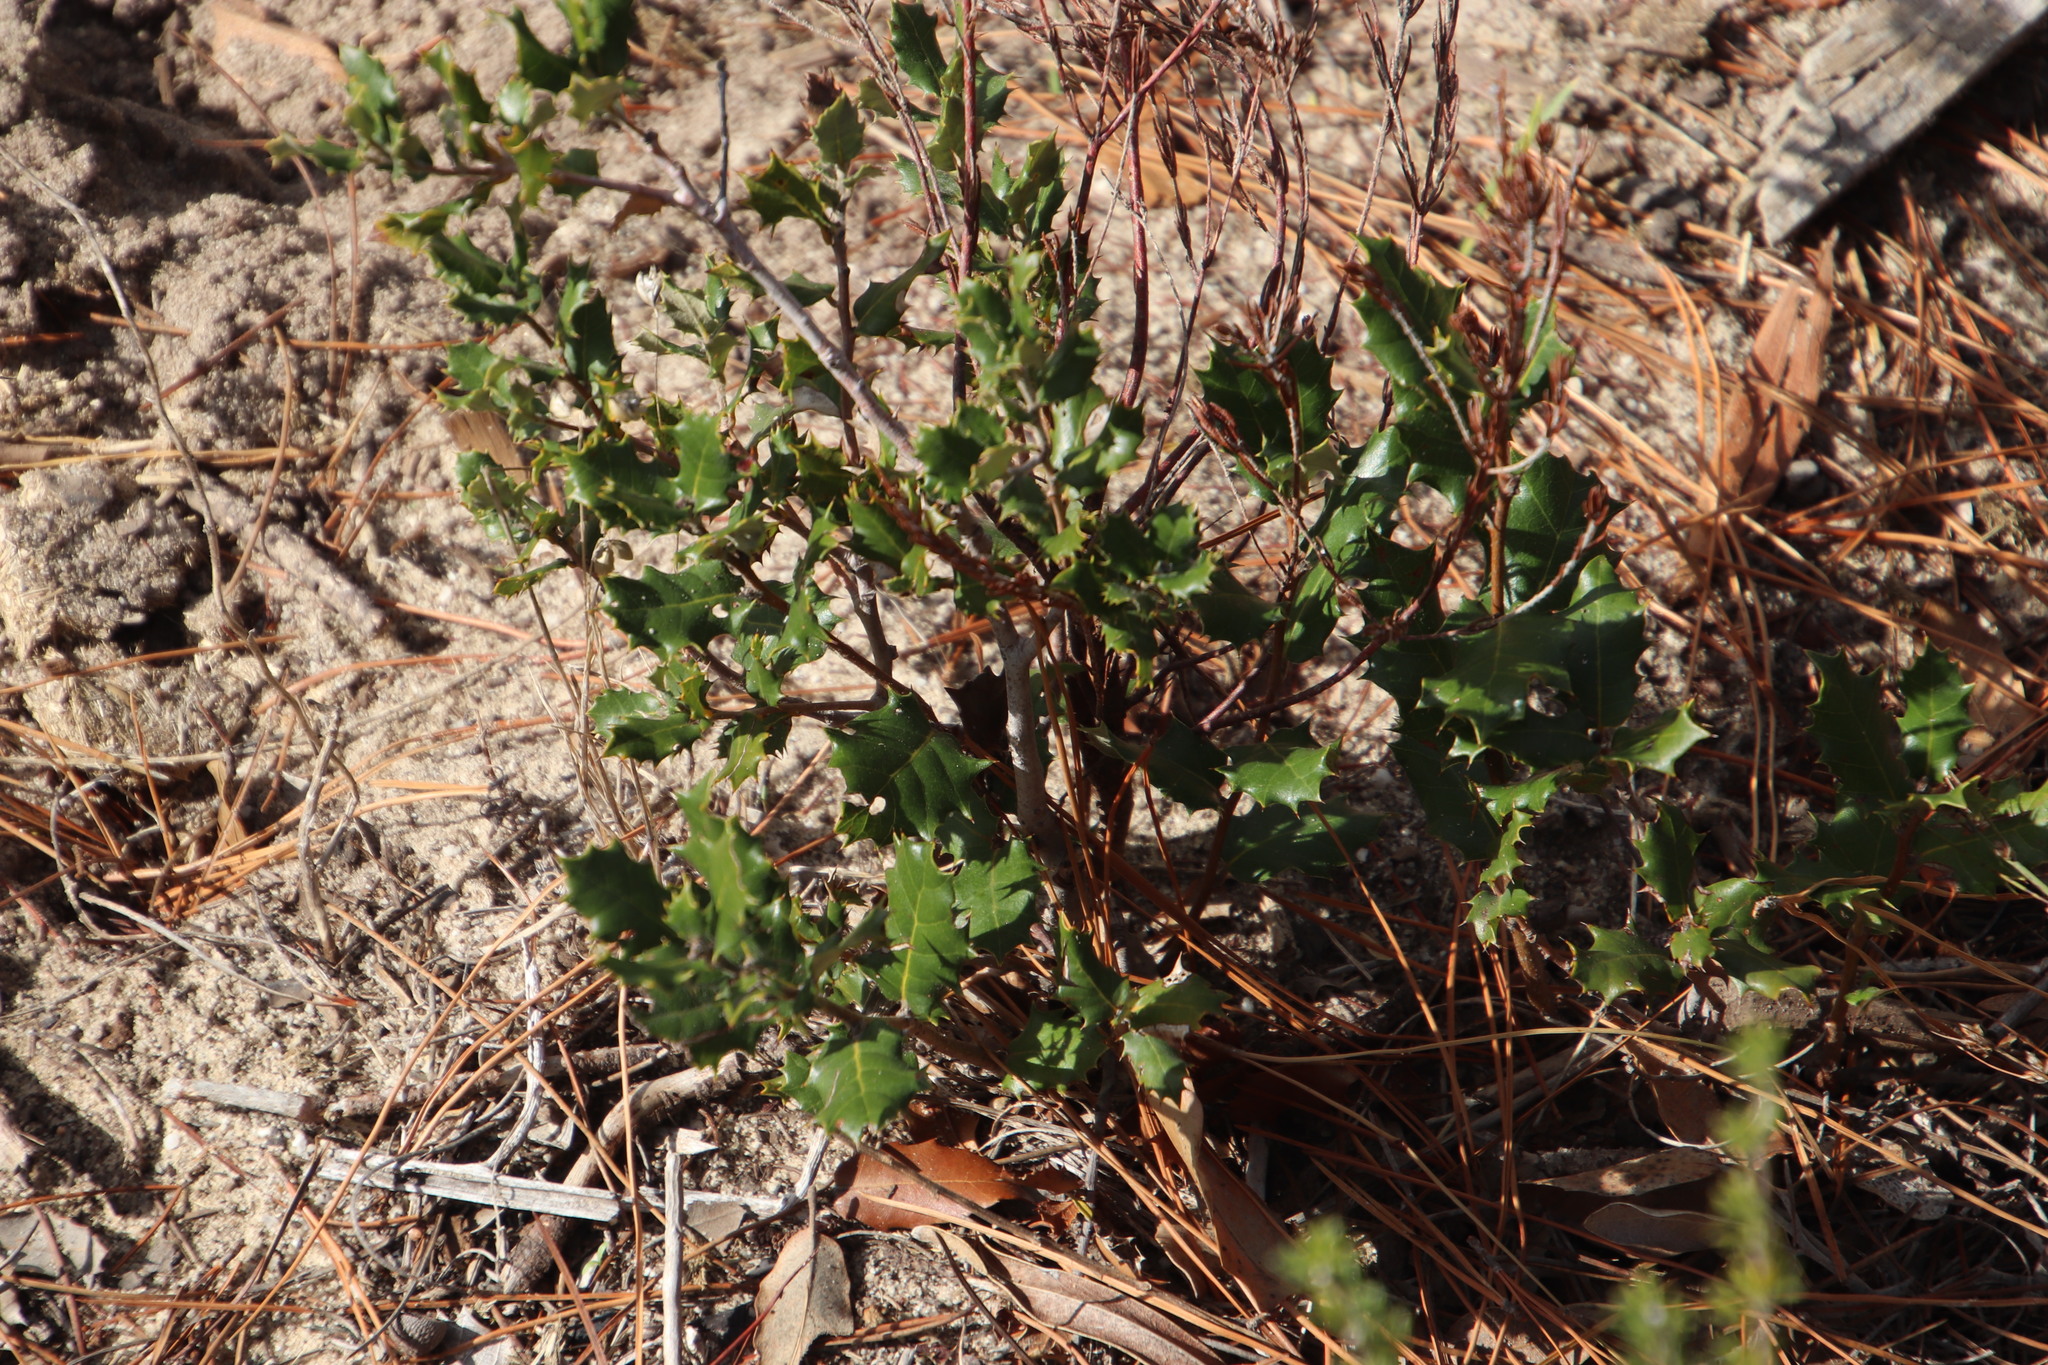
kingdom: Plantae
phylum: Tracheophyta
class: Magnoliopsida
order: Fagales
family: Fagaceae
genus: Quercus
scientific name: Quercus suber
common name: Cork oak
